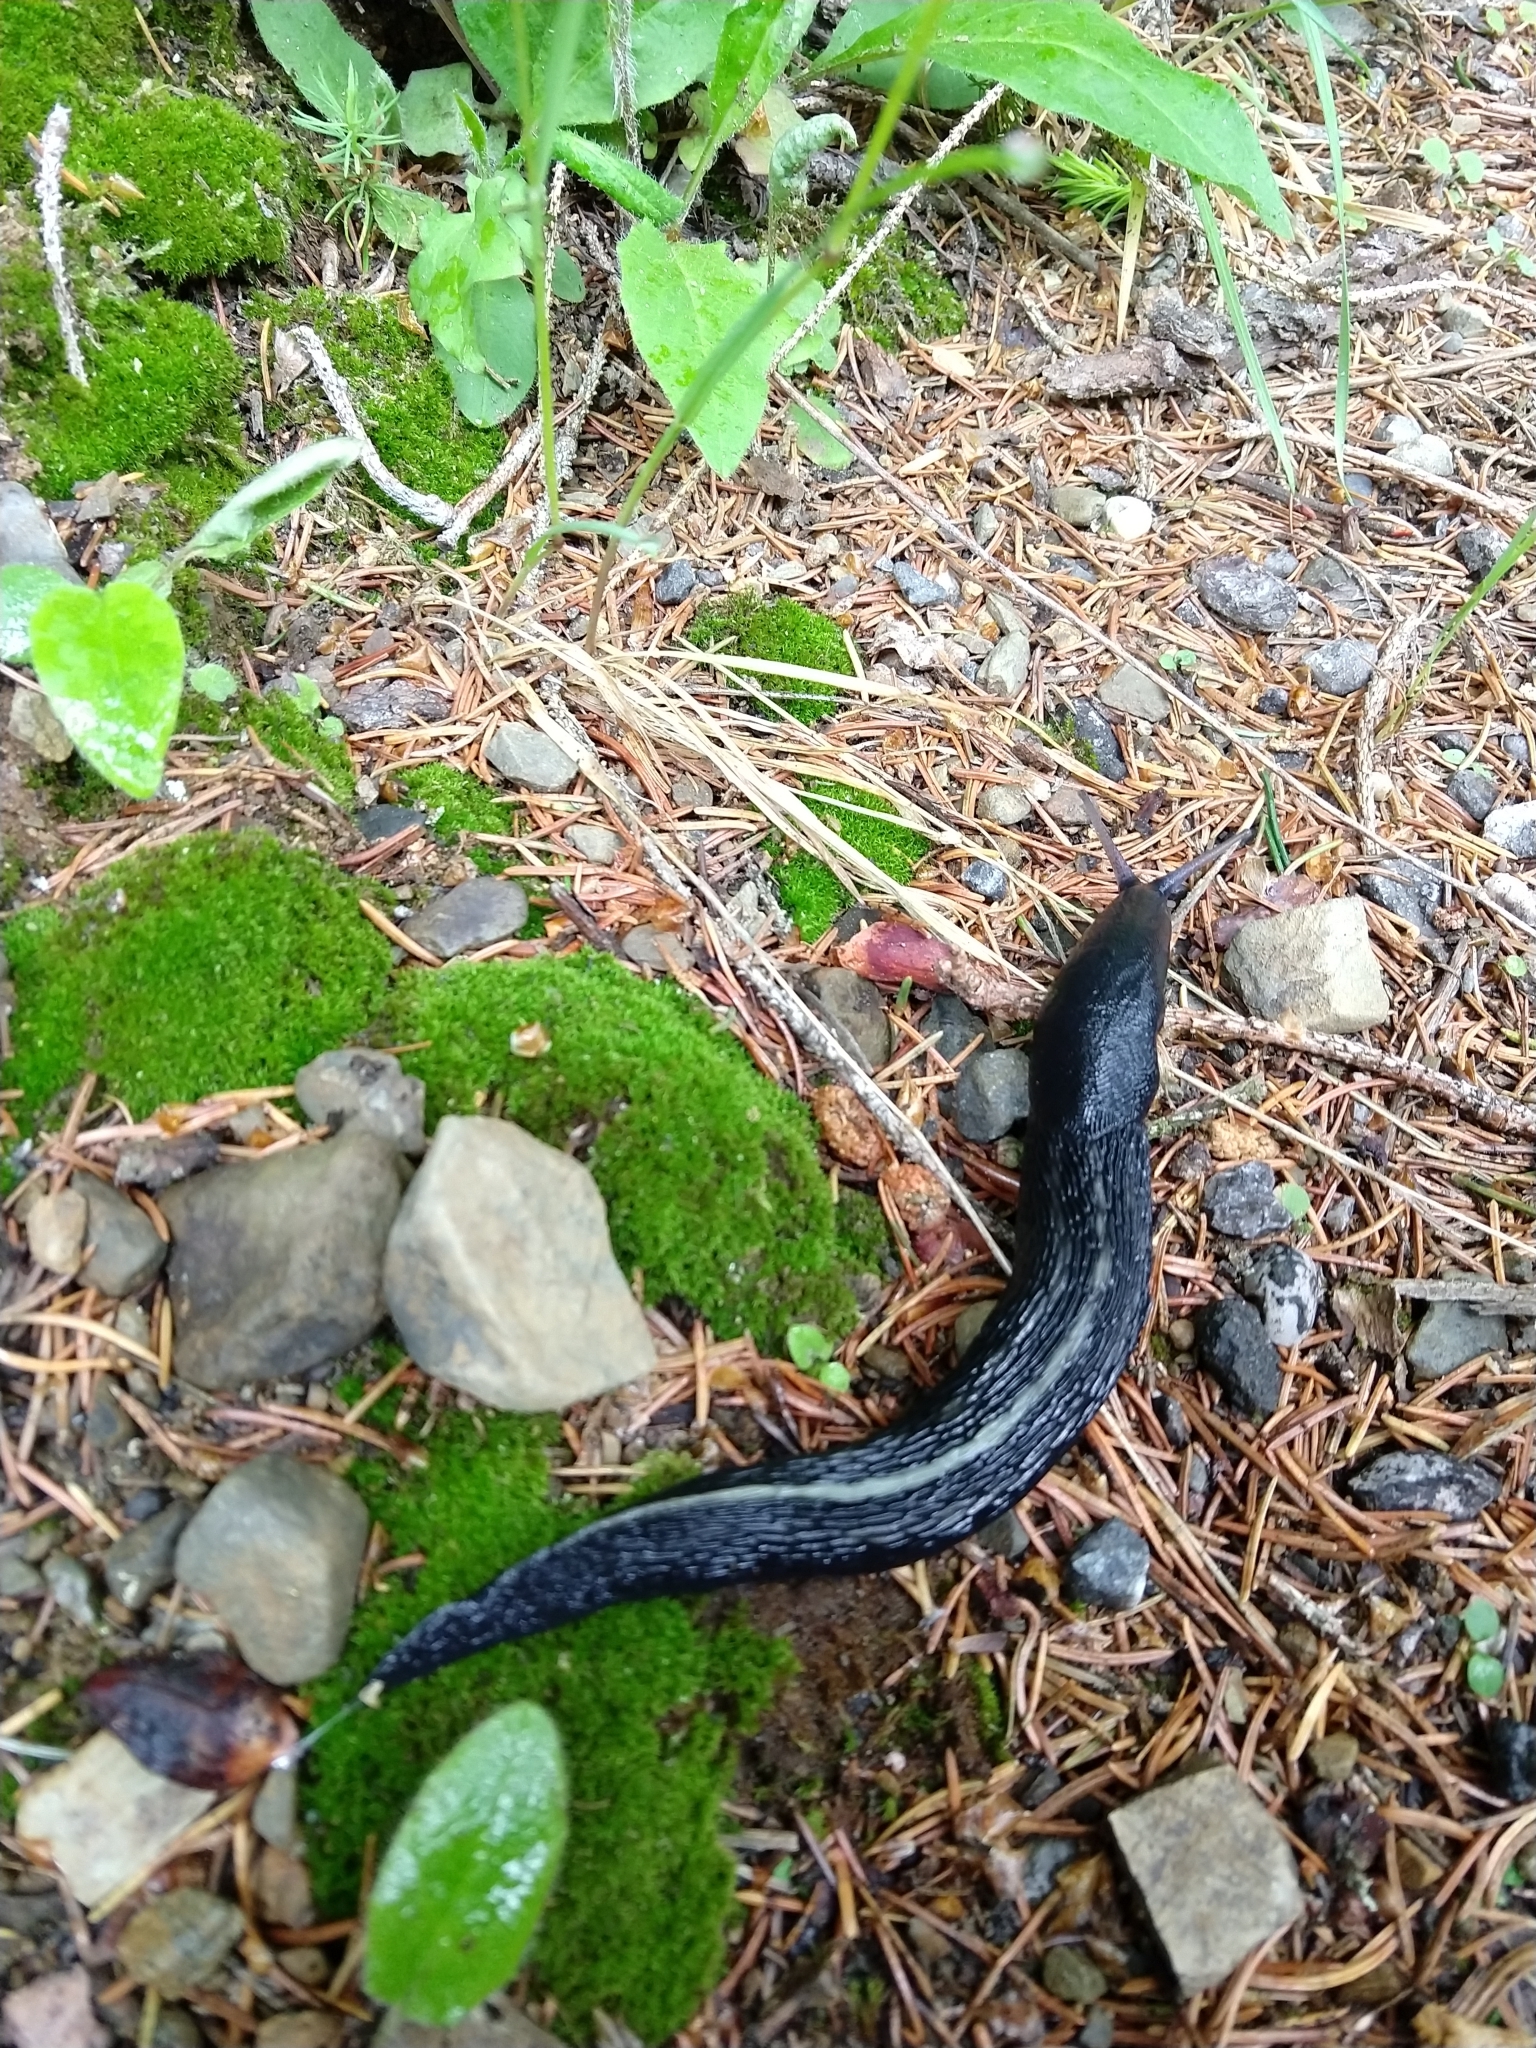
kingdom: Animalia
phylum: Mollusca
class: Gastropoda
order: Stylommatophora
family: Limacidae
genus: Limax
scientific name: Limax cinereoniger
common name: Ash-black slug
